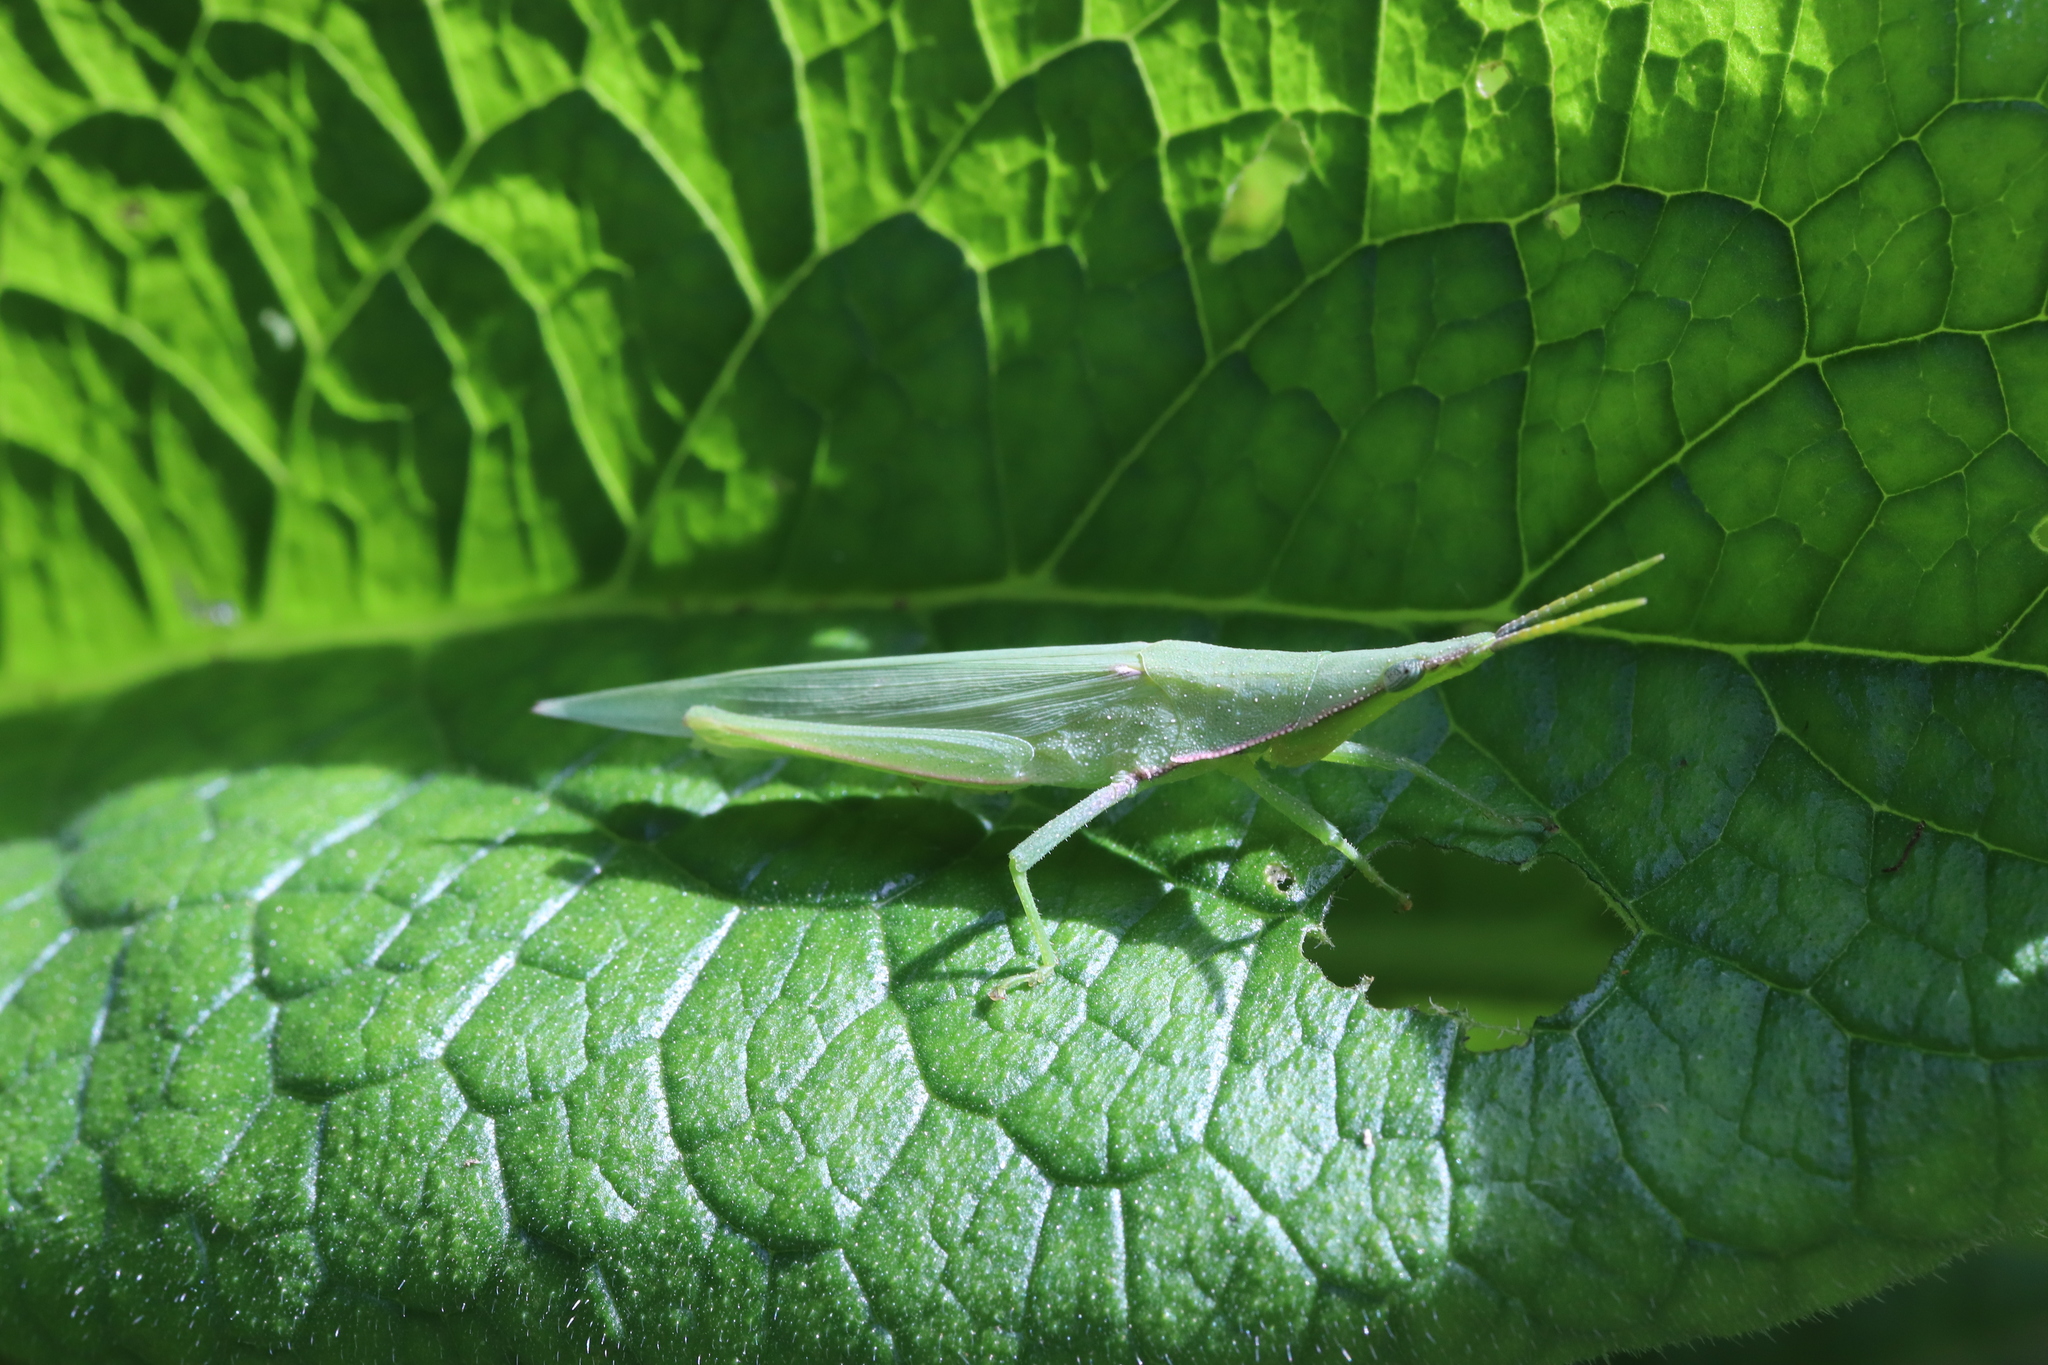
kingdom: Animalia
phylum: Arthropoda
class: Insecta
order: Orthoptera
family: Pyrgomorphidae
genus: Atractomorpha
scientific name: Atractomorpha lata
